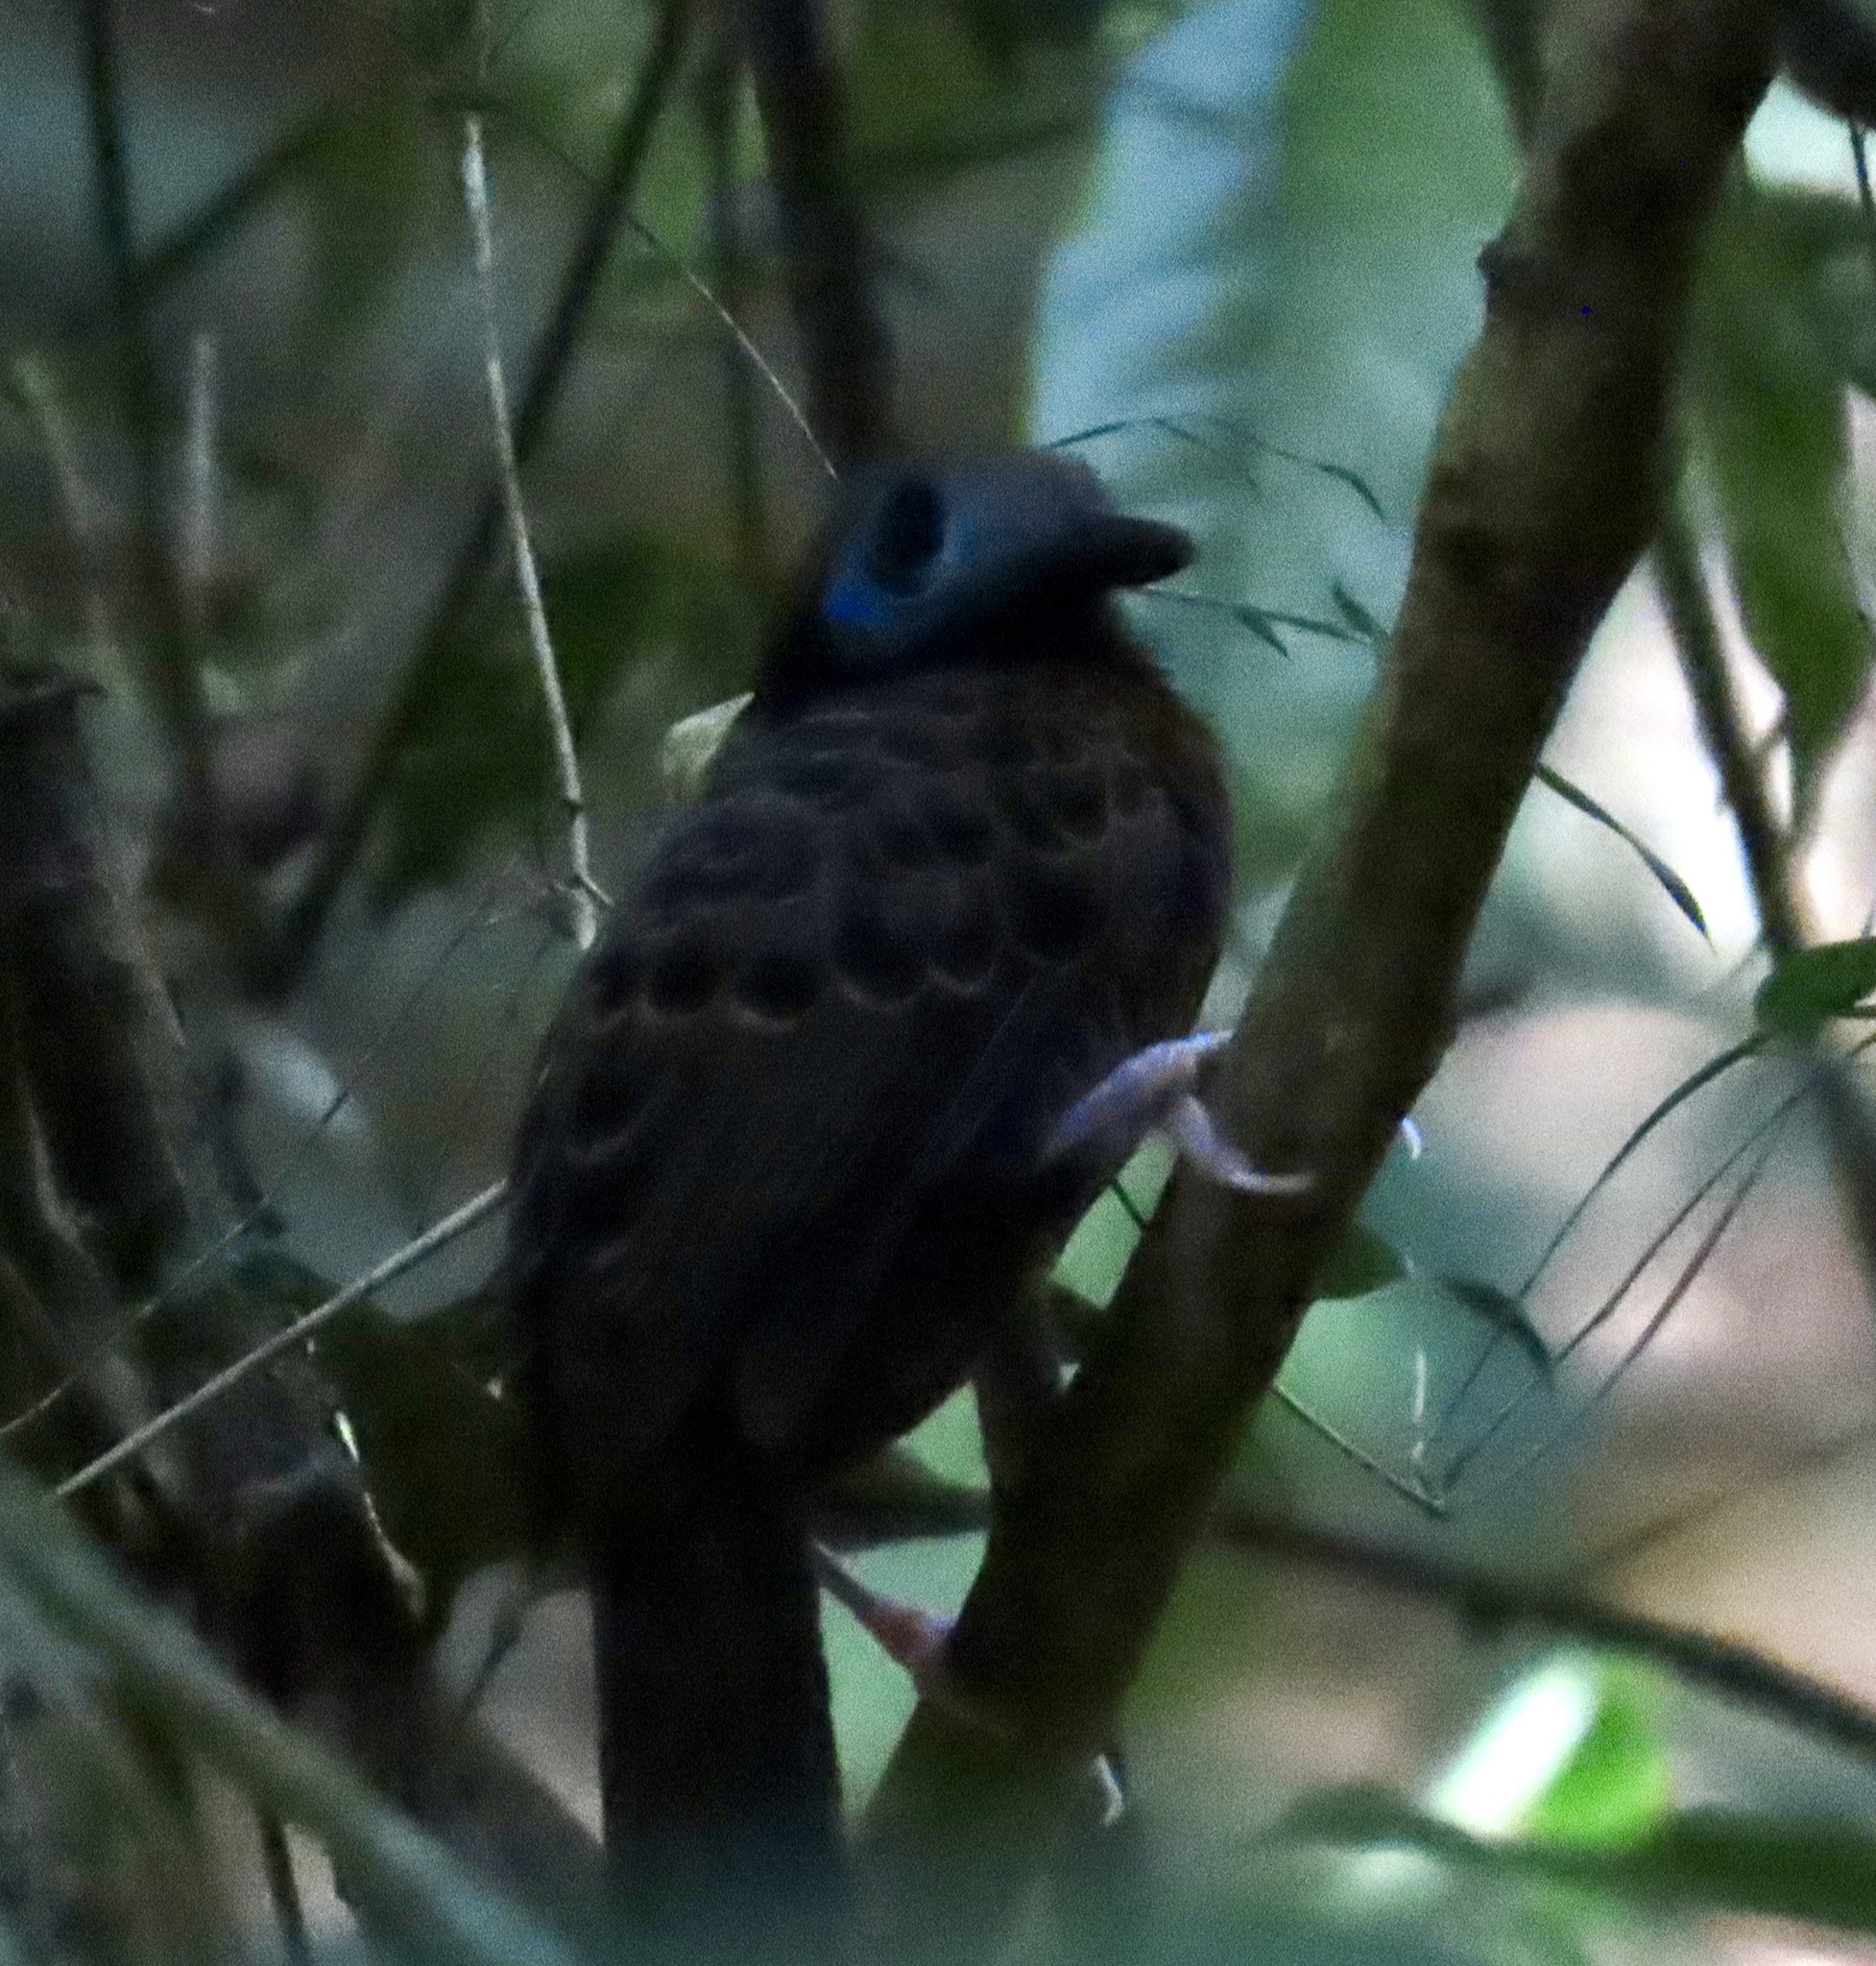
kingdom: Animalia
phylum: Chordata
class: Aves
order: Passeriformes
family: Thamnophilidae
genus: Phaenostictus
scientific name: Phaenostictus mcleannani
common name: Ocellated antbird
